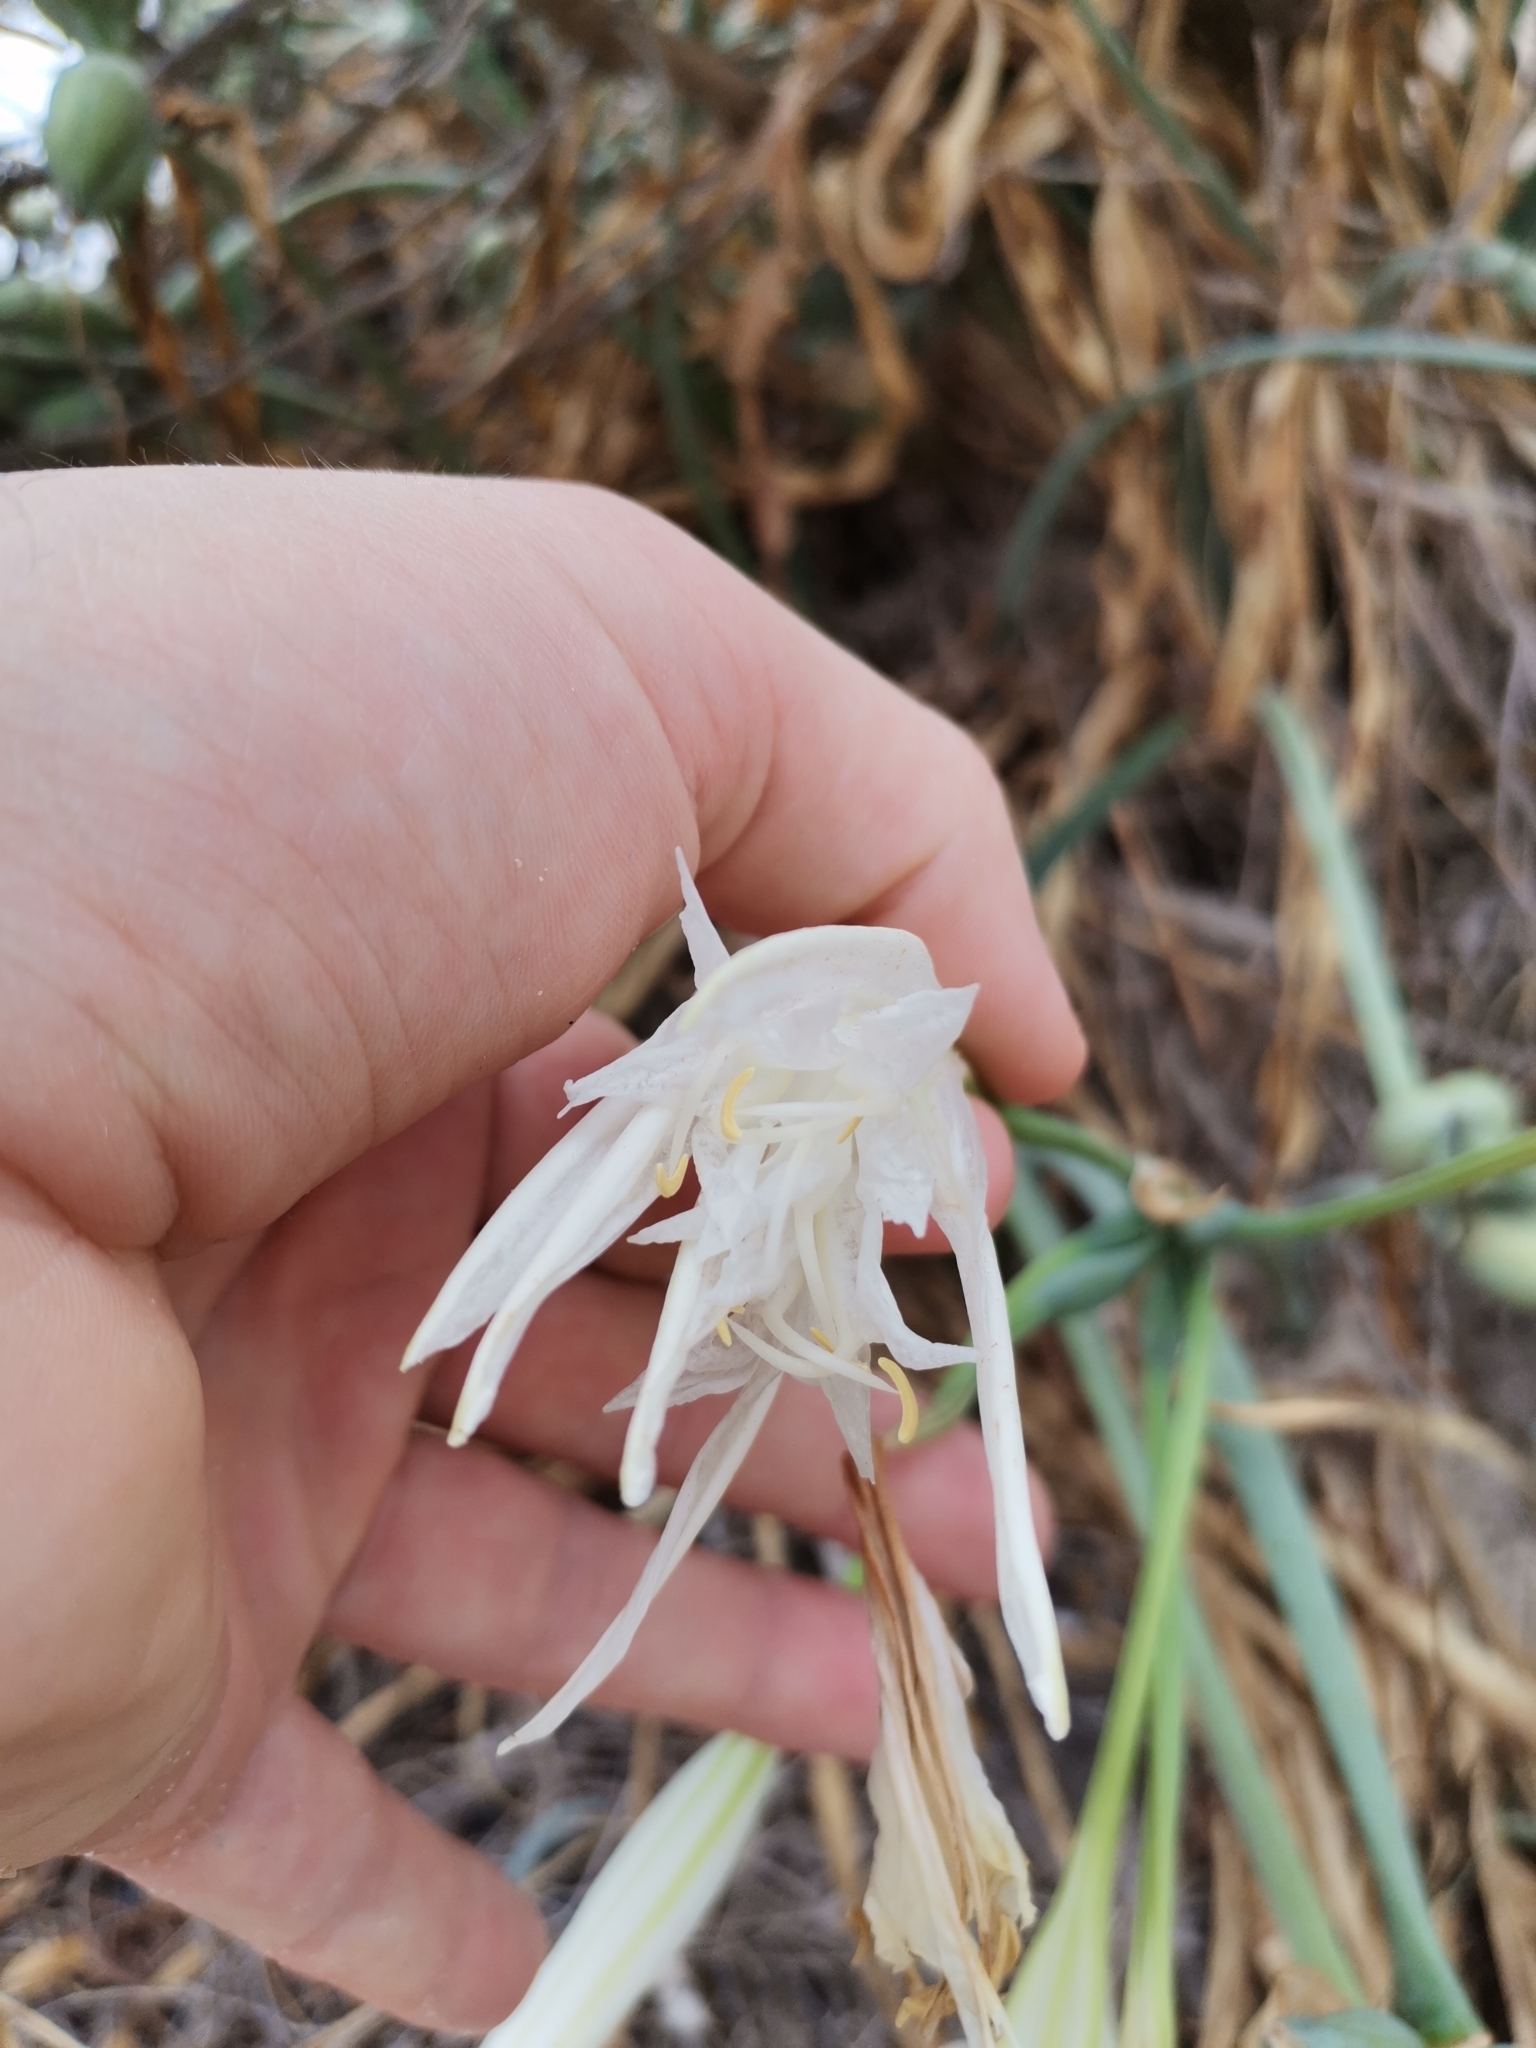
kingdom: Plantae
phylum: Tracheophyta
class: Liliopsida
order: Asparagales
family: Amaryllidaceae
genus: Pancratium
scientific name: Pancratium maritimum
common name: Sea-daffodil
